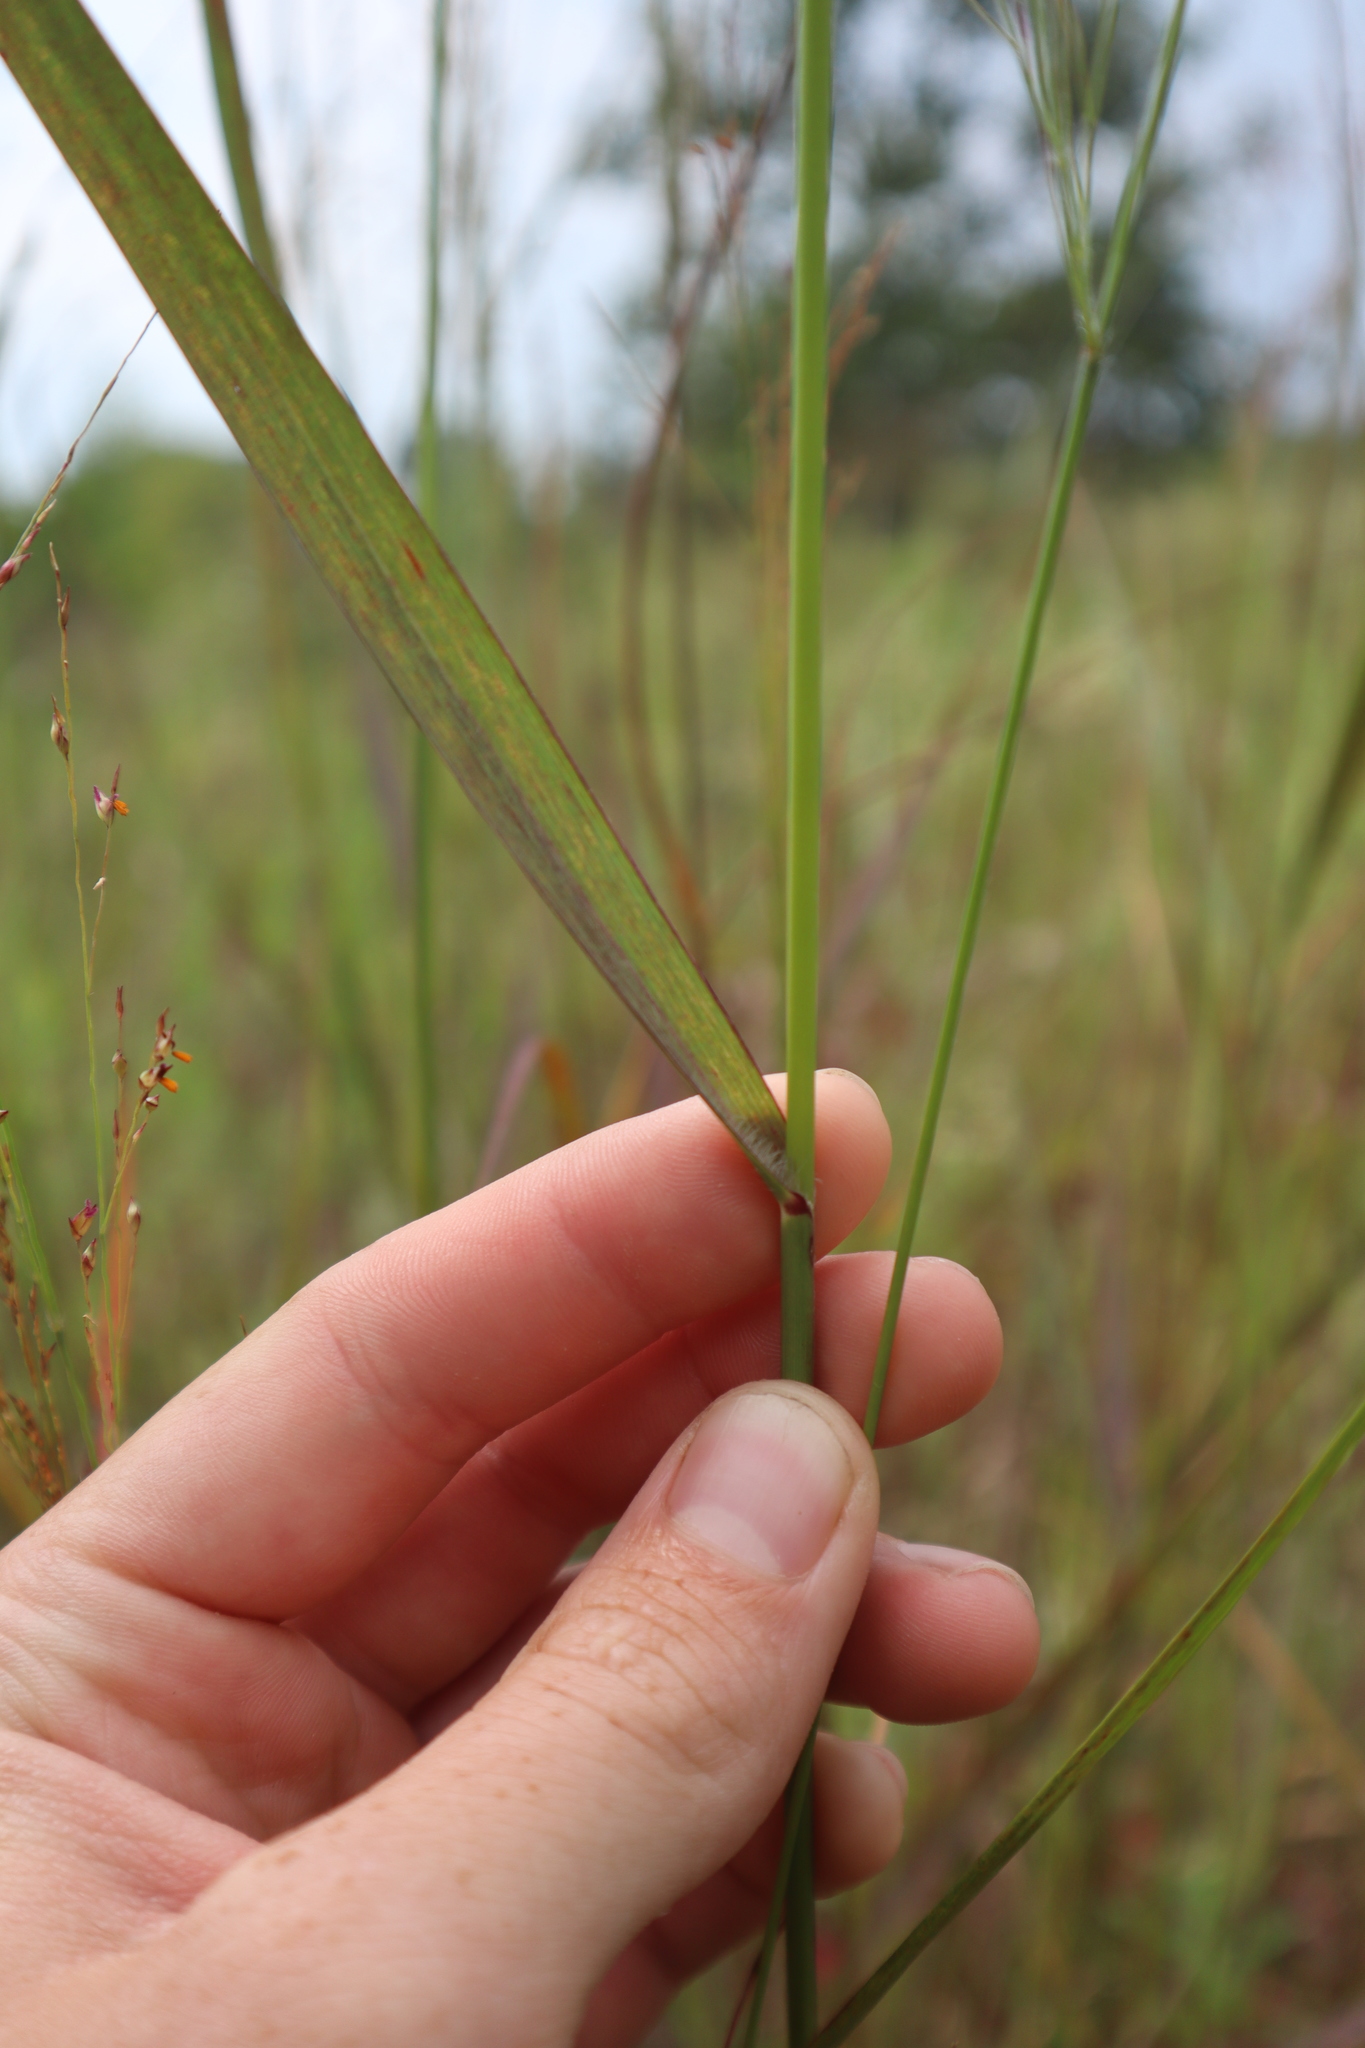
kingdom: Plantae
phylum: Tracheophyta
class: Liliopsida
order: Poales
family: Poaceae
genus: Panicum
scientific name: Panicum virgatum
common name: Switchgrass
